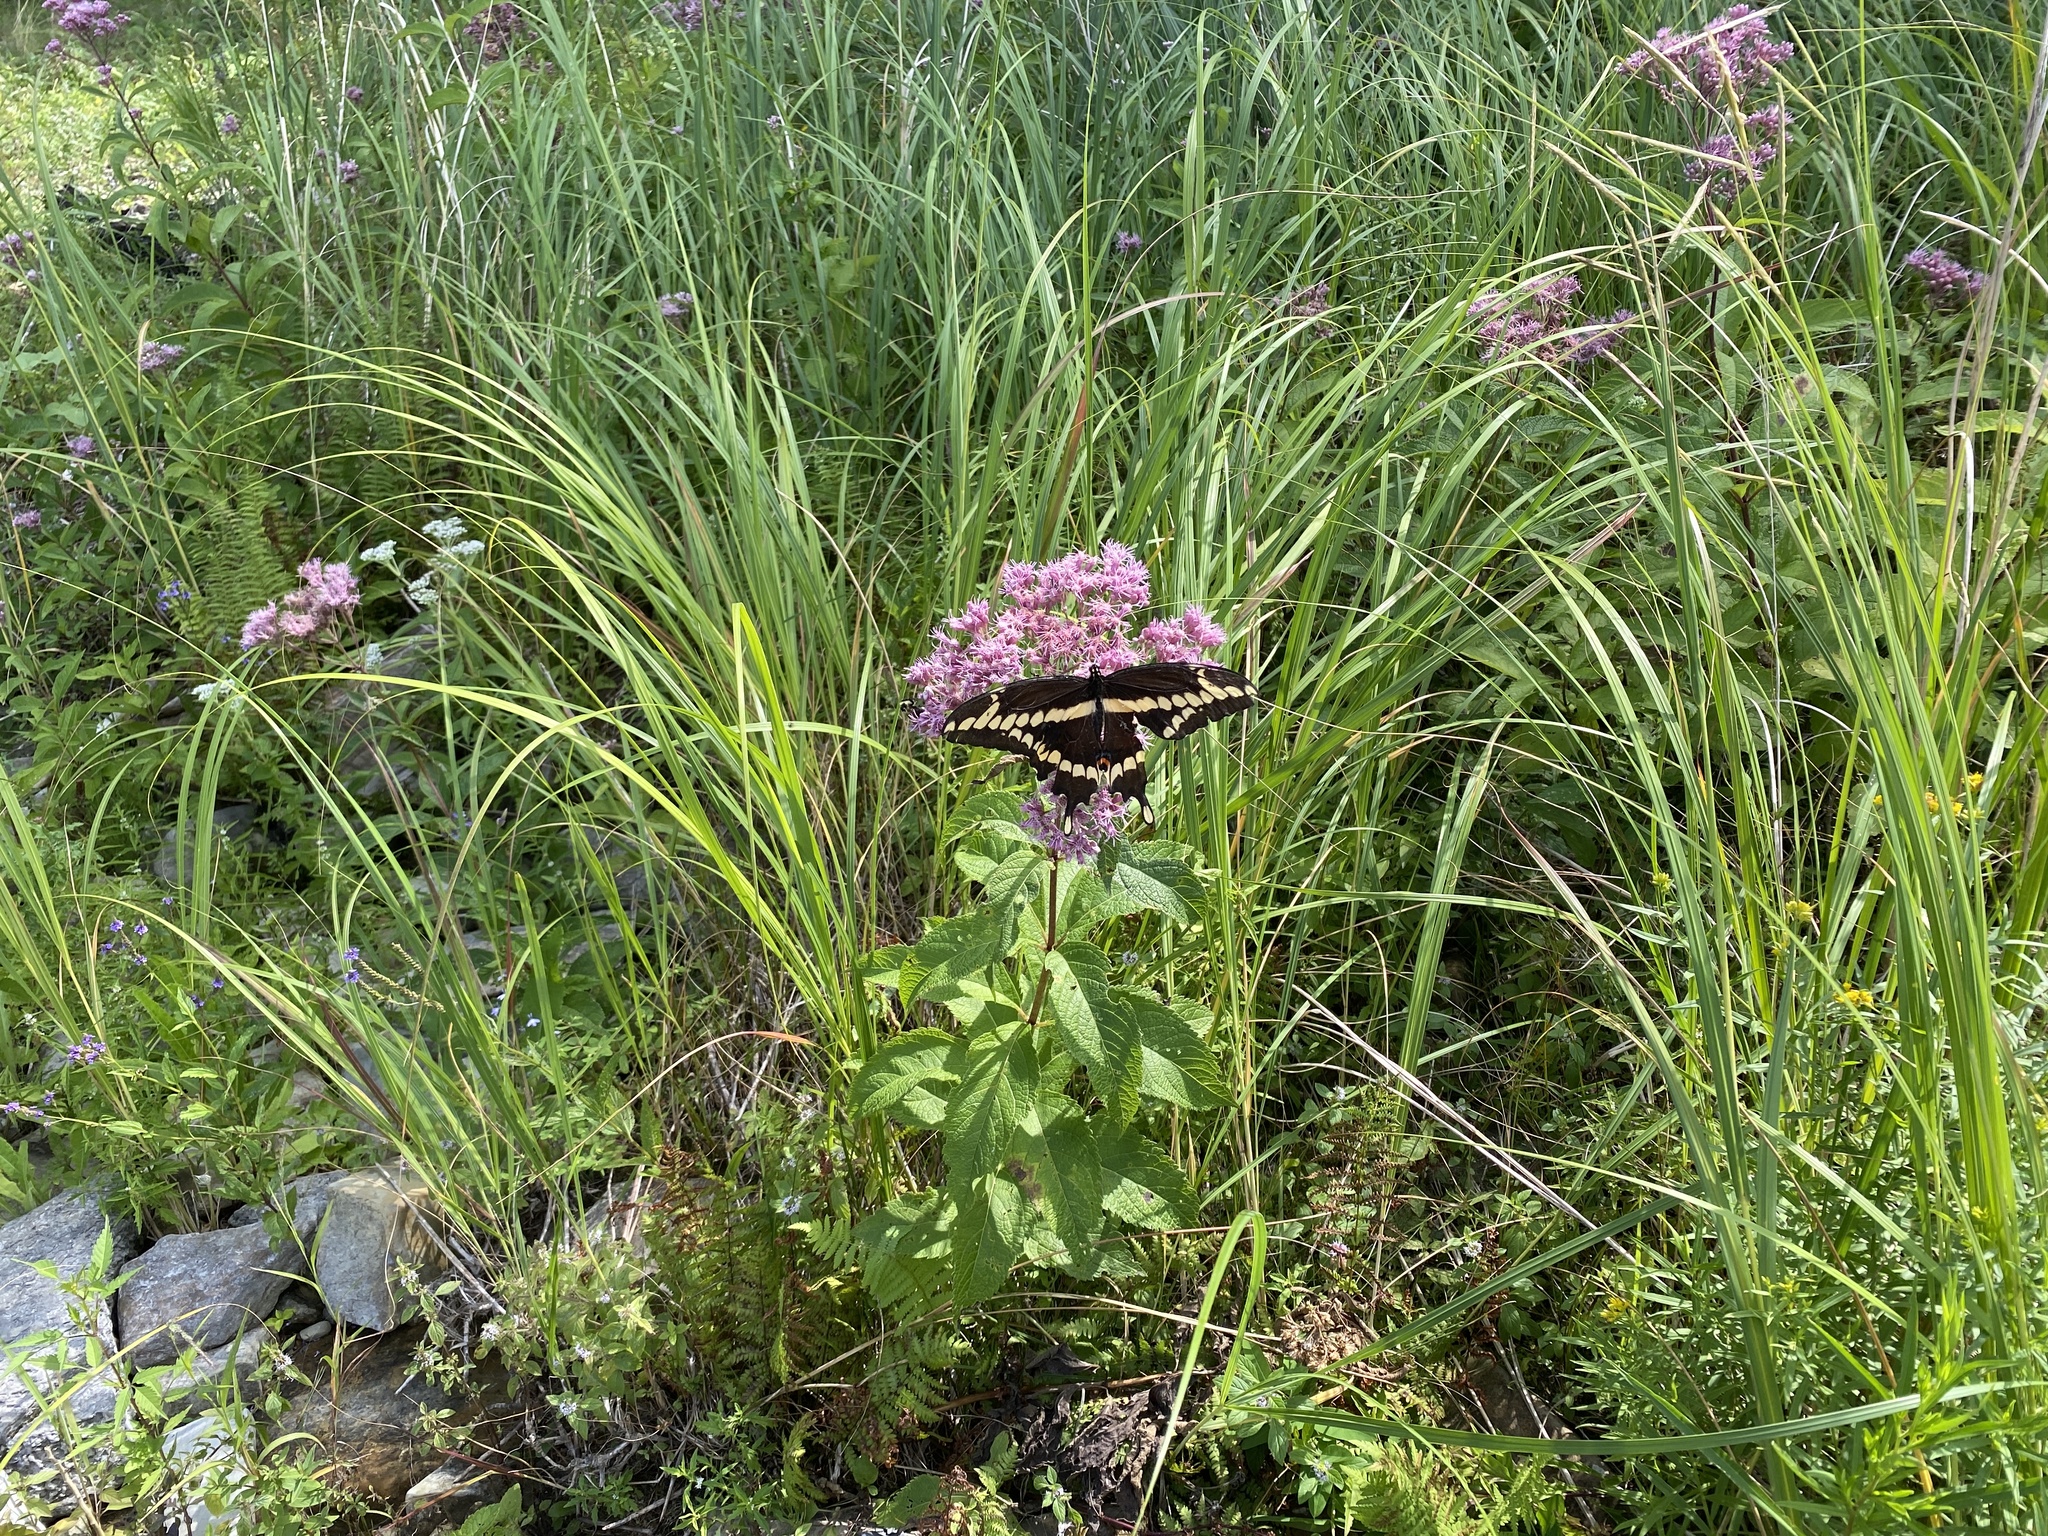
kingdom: Animalia
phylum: Arthropoda
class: Insecta
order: Lepidoptera
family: Papilionidae
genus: Papilio
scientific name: Papilio cresphontes
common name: Giant swallowtail
